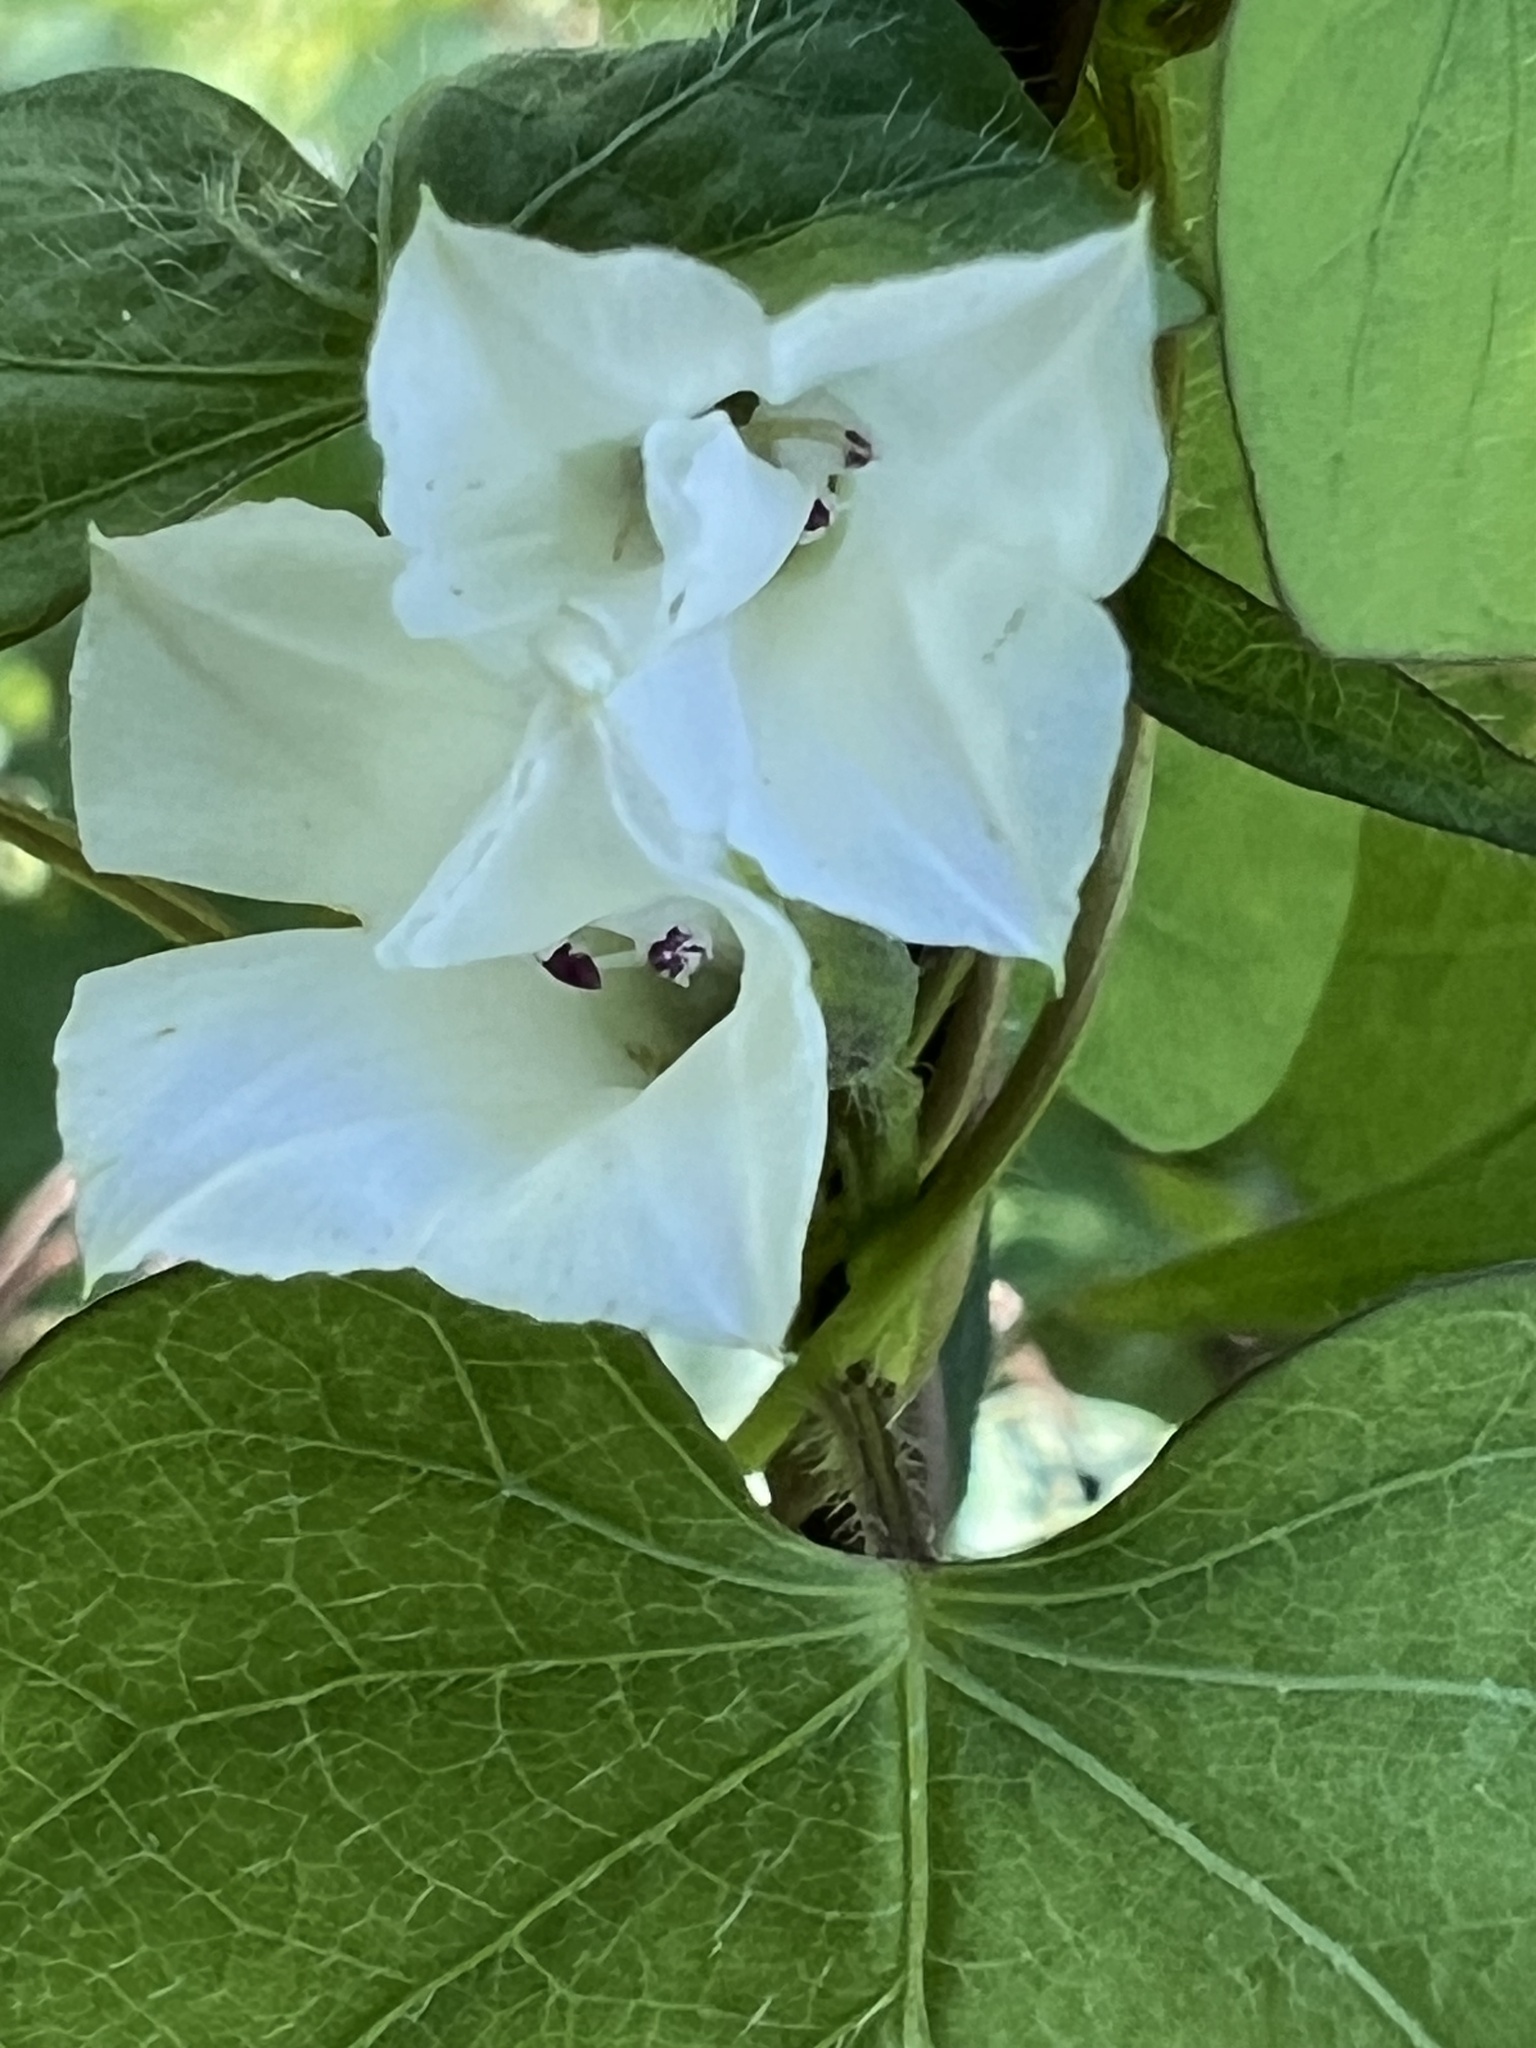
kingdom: Plantae
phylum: Tracheophyta
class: Magnoliopsida
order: Solanales
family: Convolvulaceae
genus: Ipomoea
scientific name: Ipomoea lacunosa
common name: White morning-glory
